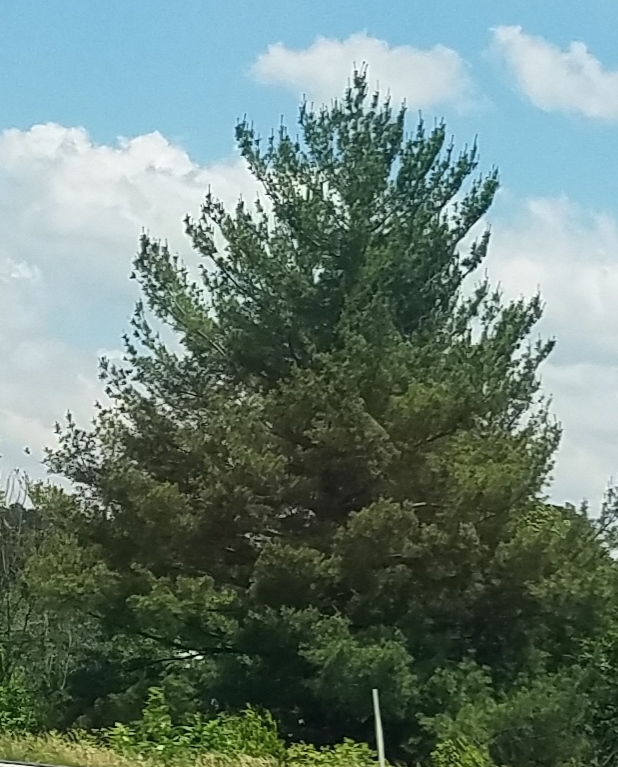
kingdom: Plantae
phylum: Tracheophyta
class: Pinopsida
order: Pinales
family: Pinaceae
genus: Pinus
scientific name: Pinus strobus
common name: Weymouth pine
